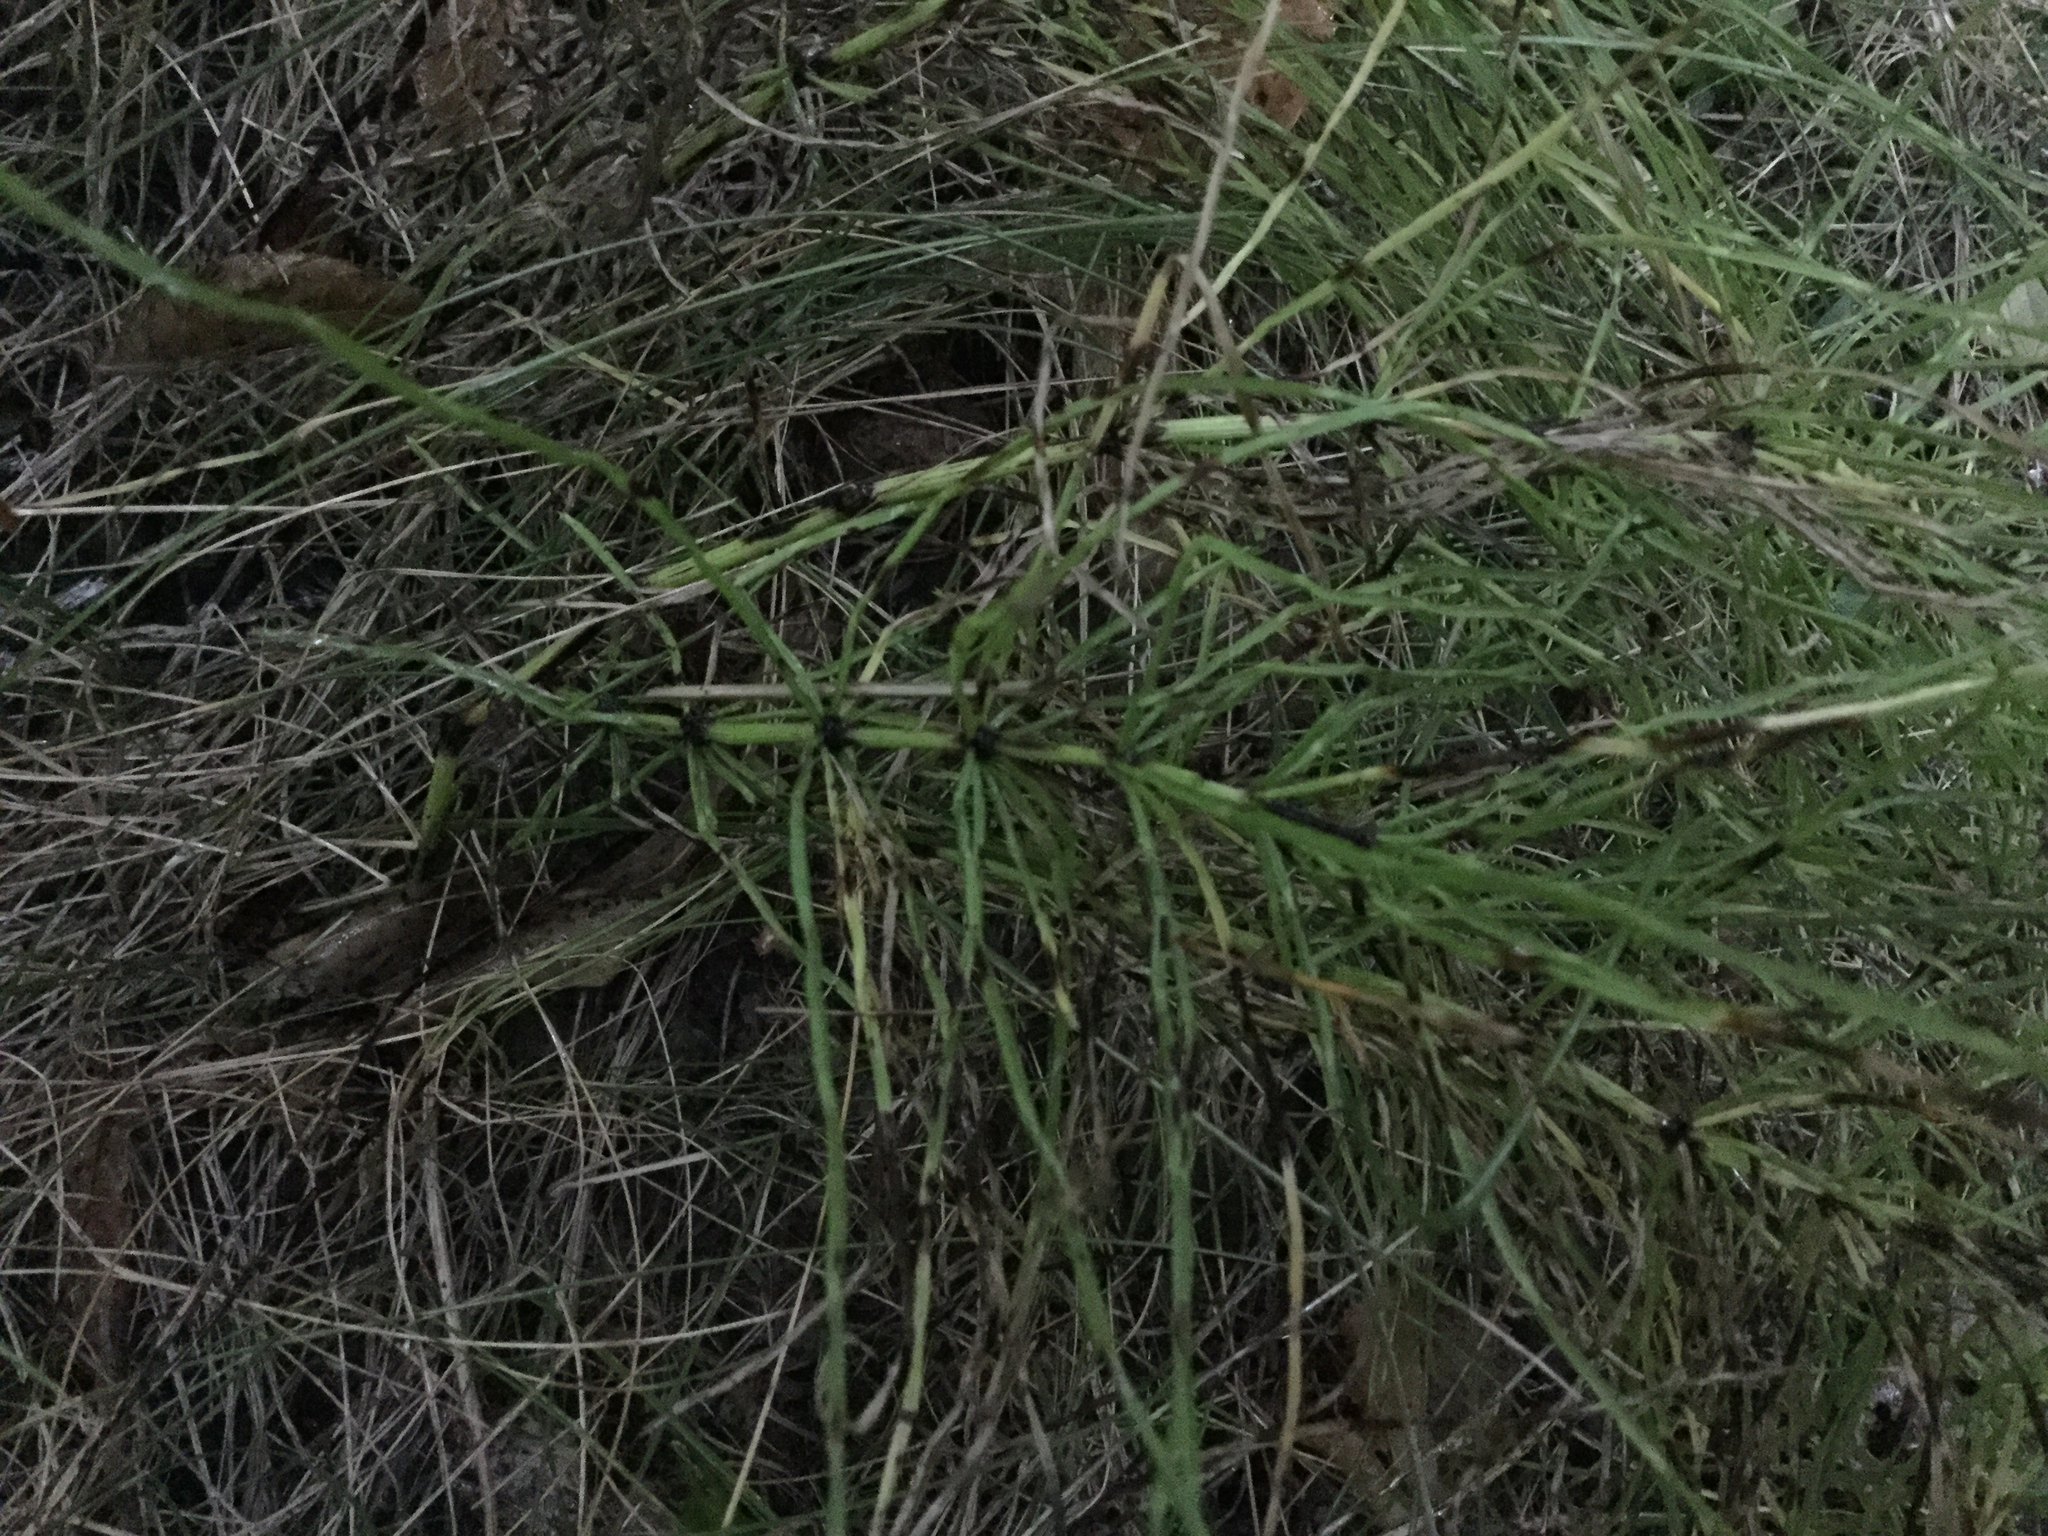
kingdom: Plantae
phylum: Tracheophyta
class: Polypodiopsida
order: Equisetales
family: Equisetaceae
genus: Equisetum
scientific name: Equisetum arvense
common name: Field horsetail
